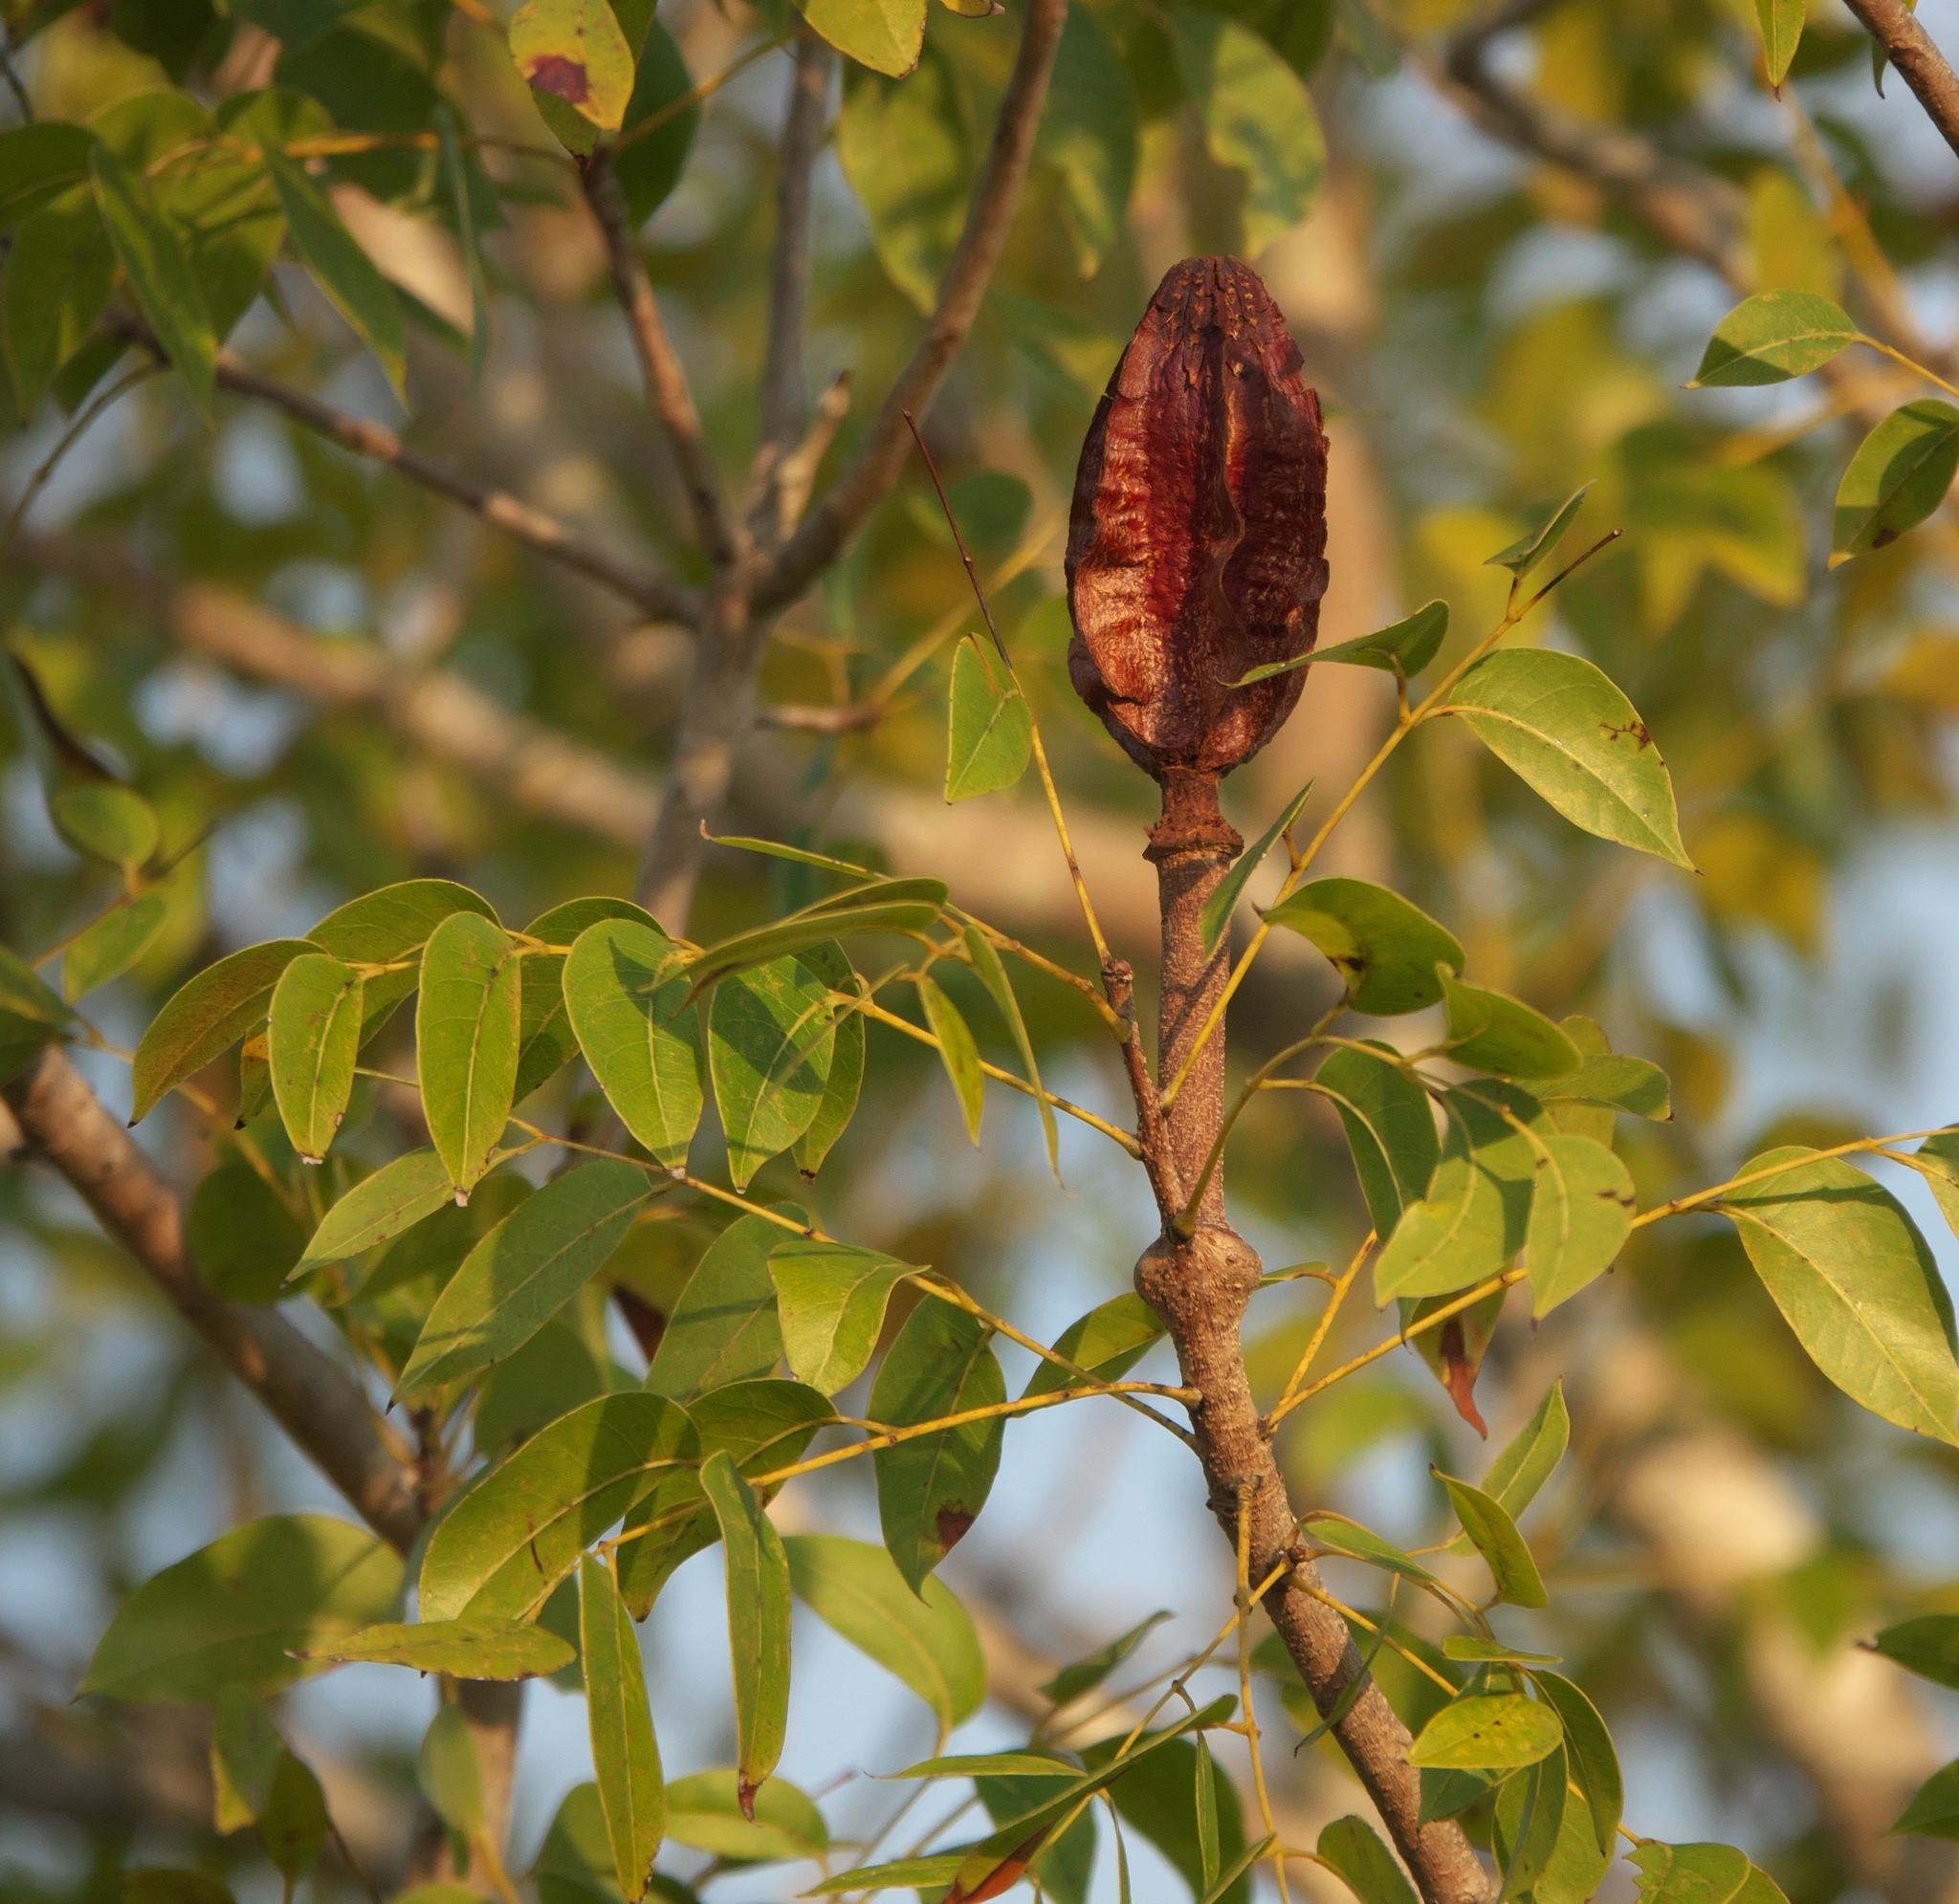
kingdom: Plantae
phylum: Tracheophyta
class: Magnoliopsida
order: Sapindales
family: Meliaceae
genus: Swietenia
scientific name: Swietenia mahagoni
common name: West indian mahogany
